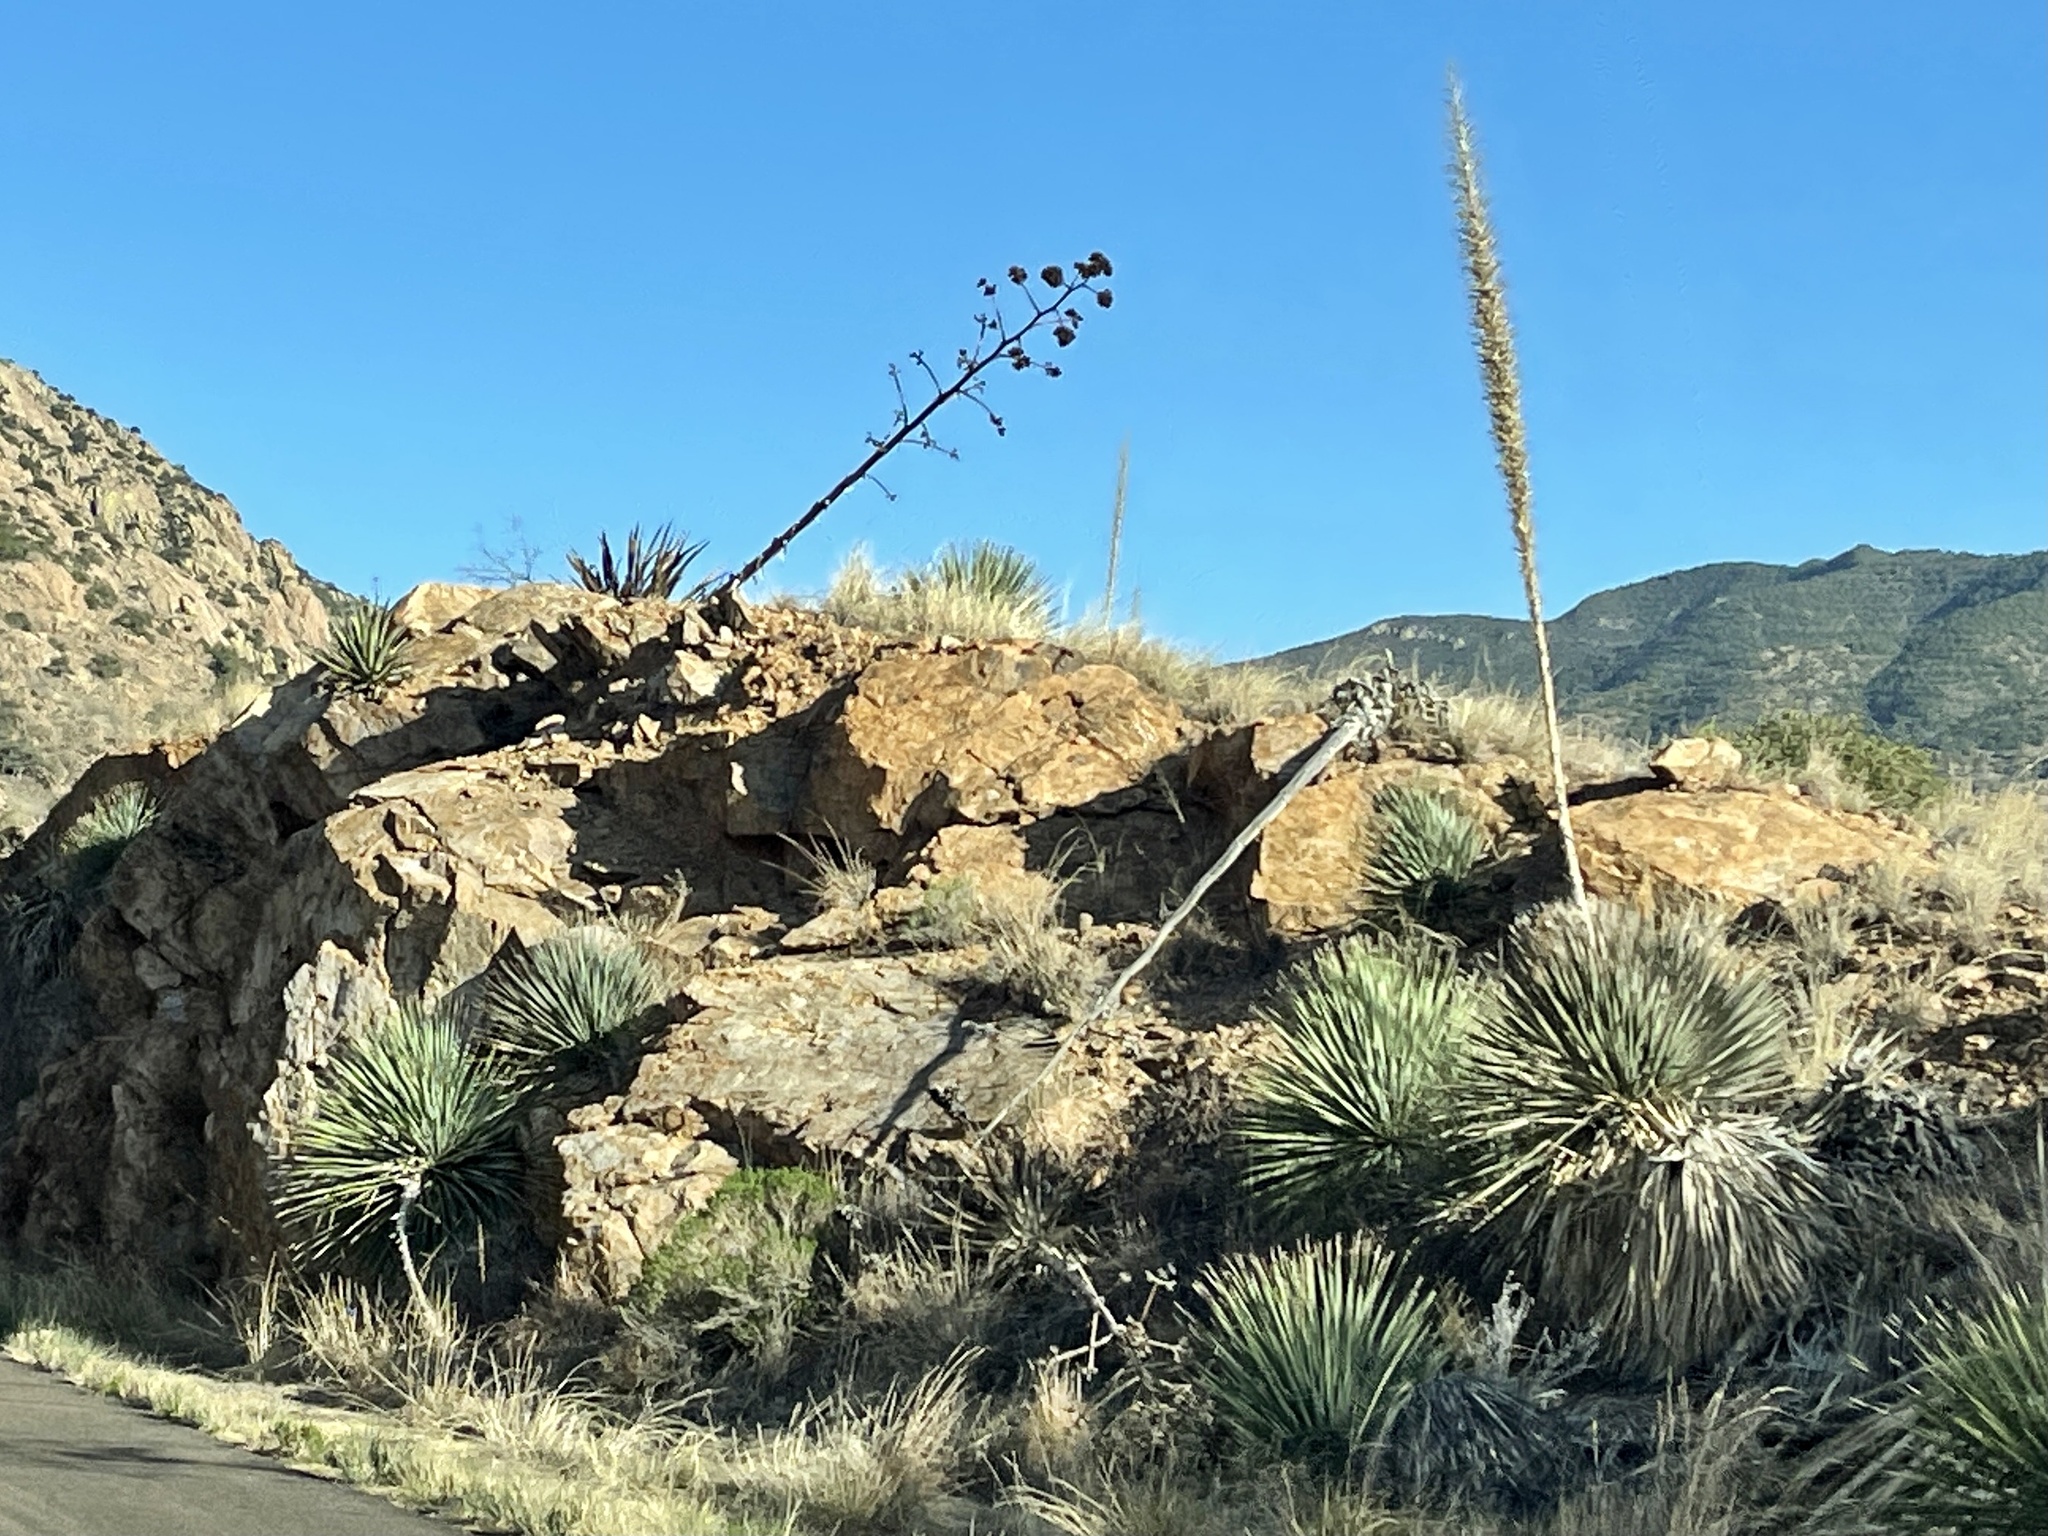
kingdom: Plantae
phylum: Tracheophyta
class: Liliopsida
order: Asparagales
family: Asparagaceae
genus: Dasylirion
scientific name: Dasylirion wheeleri
